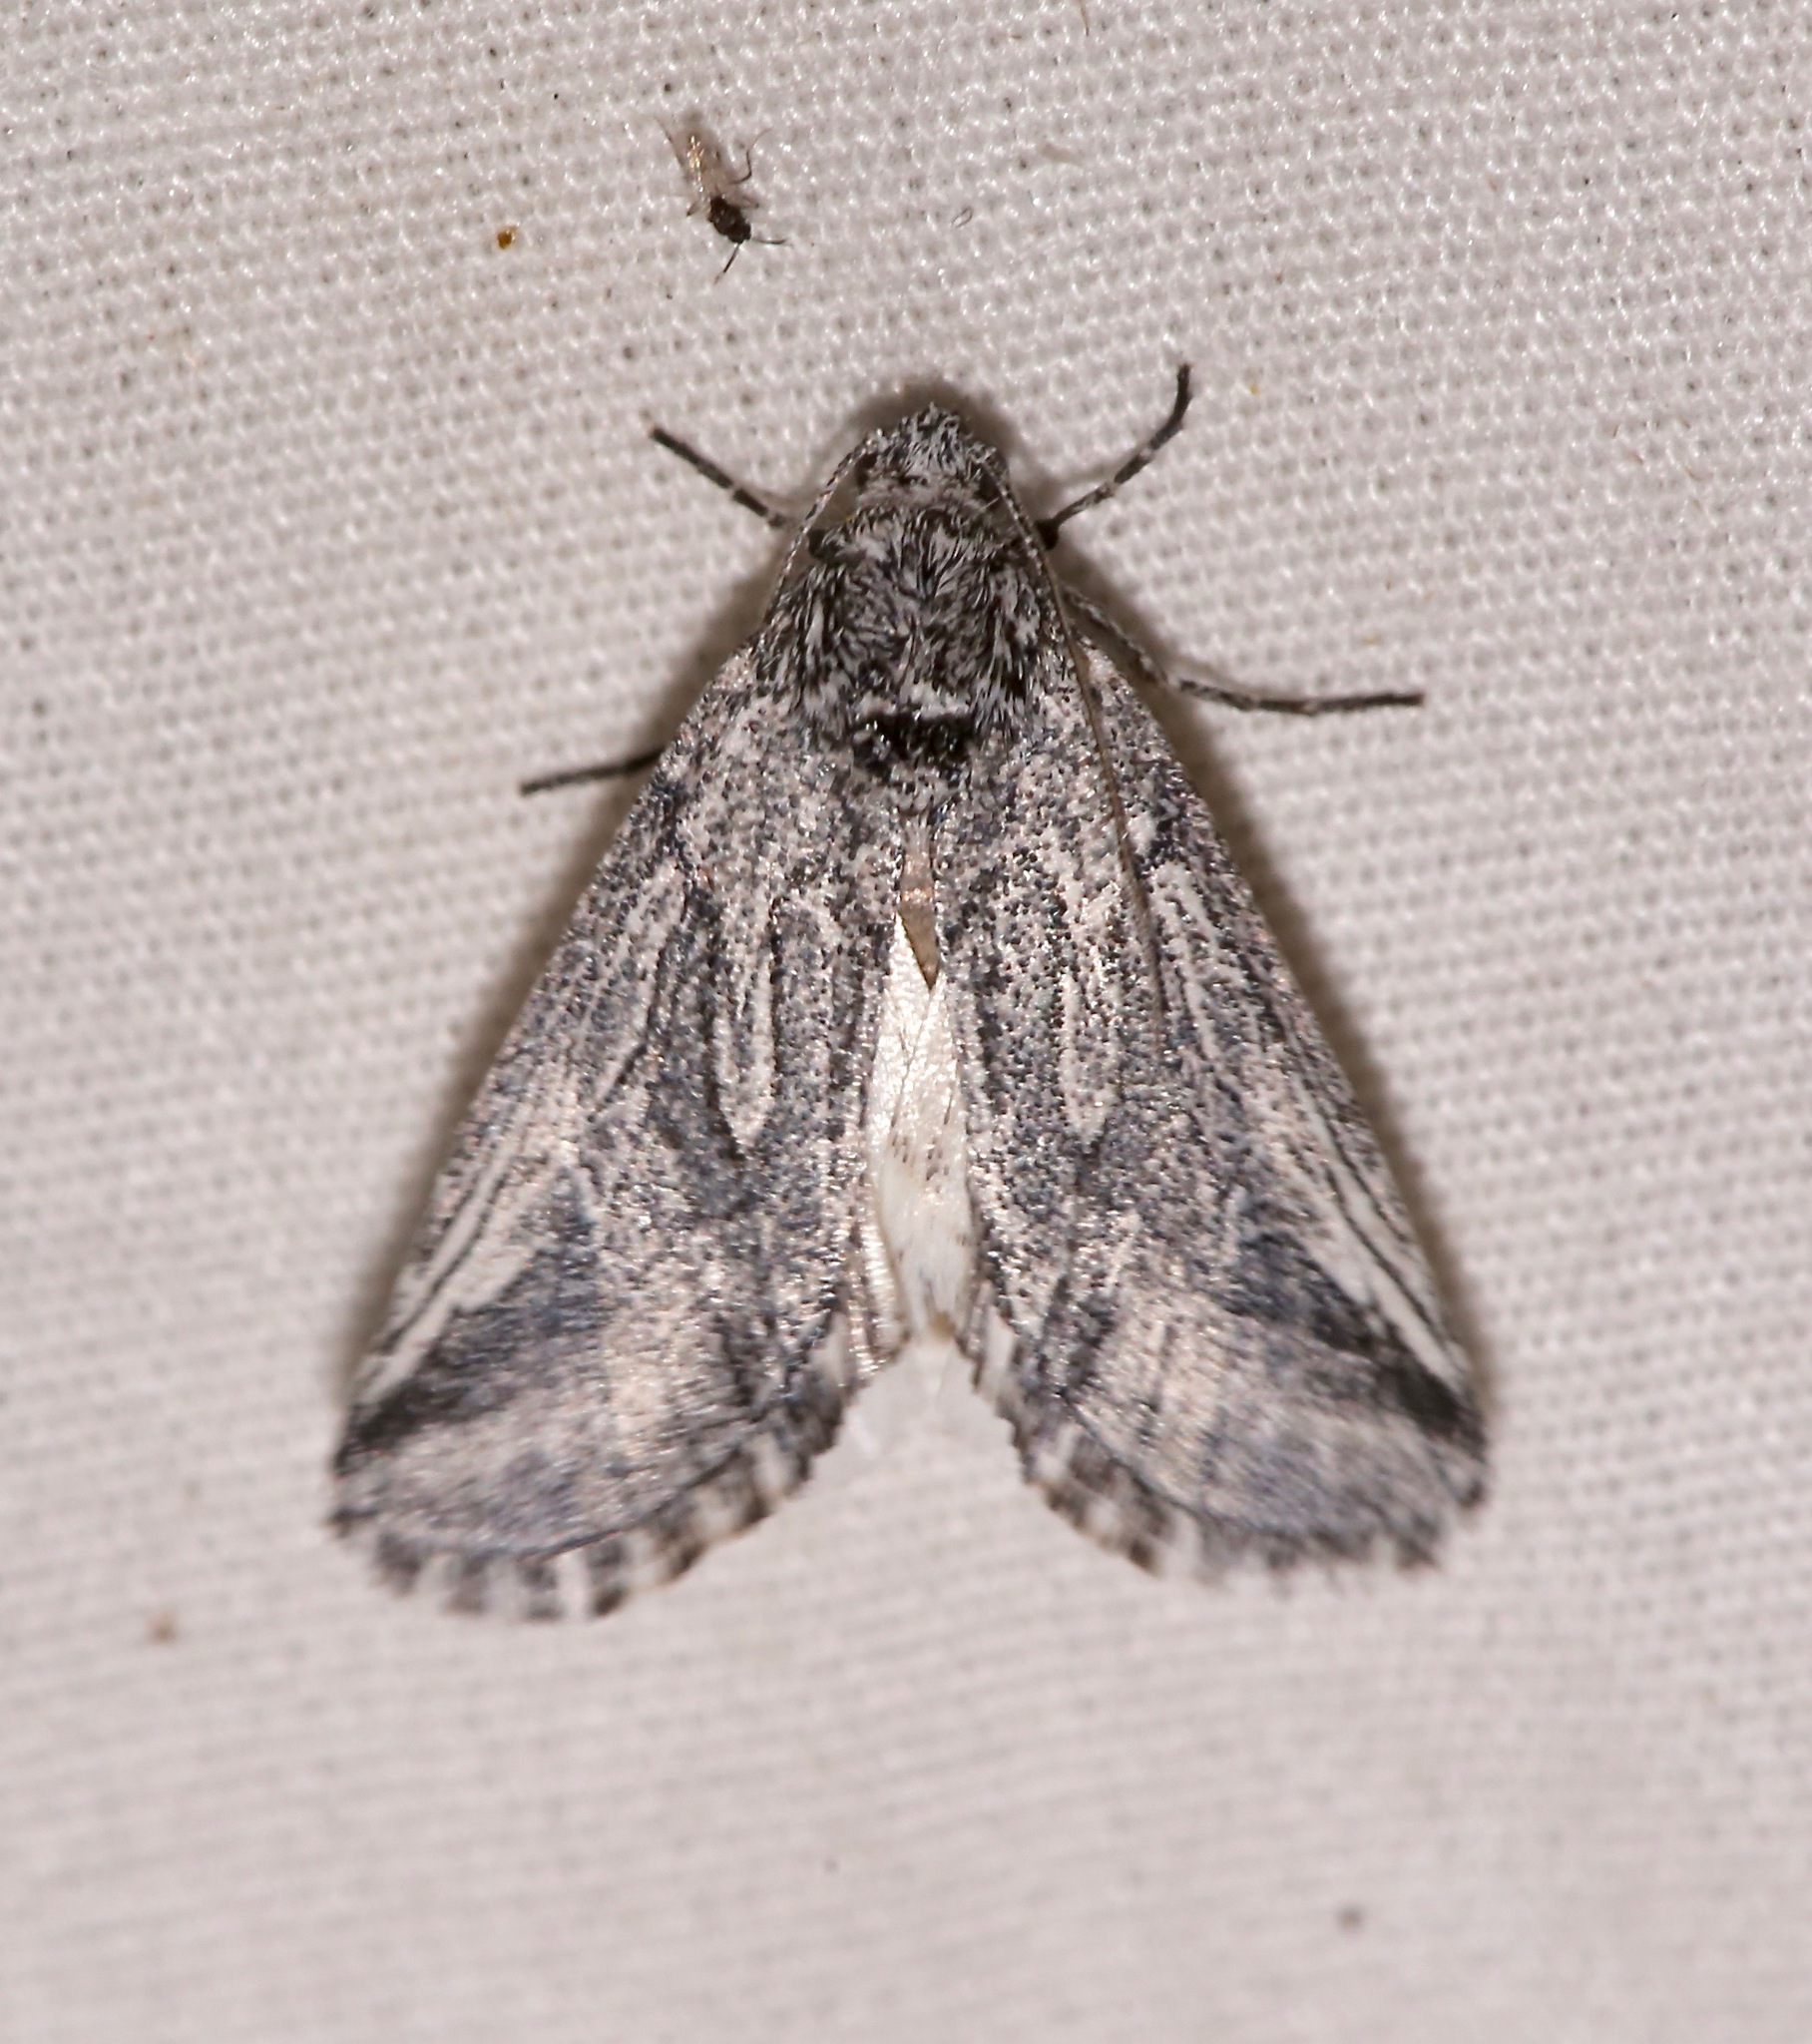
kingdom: Animalia
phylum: Arthropoda
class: Insecta
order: Lepidoptera
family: Noctuidae
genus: Oxycnemis
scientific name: Oxycnemis fusimacula
